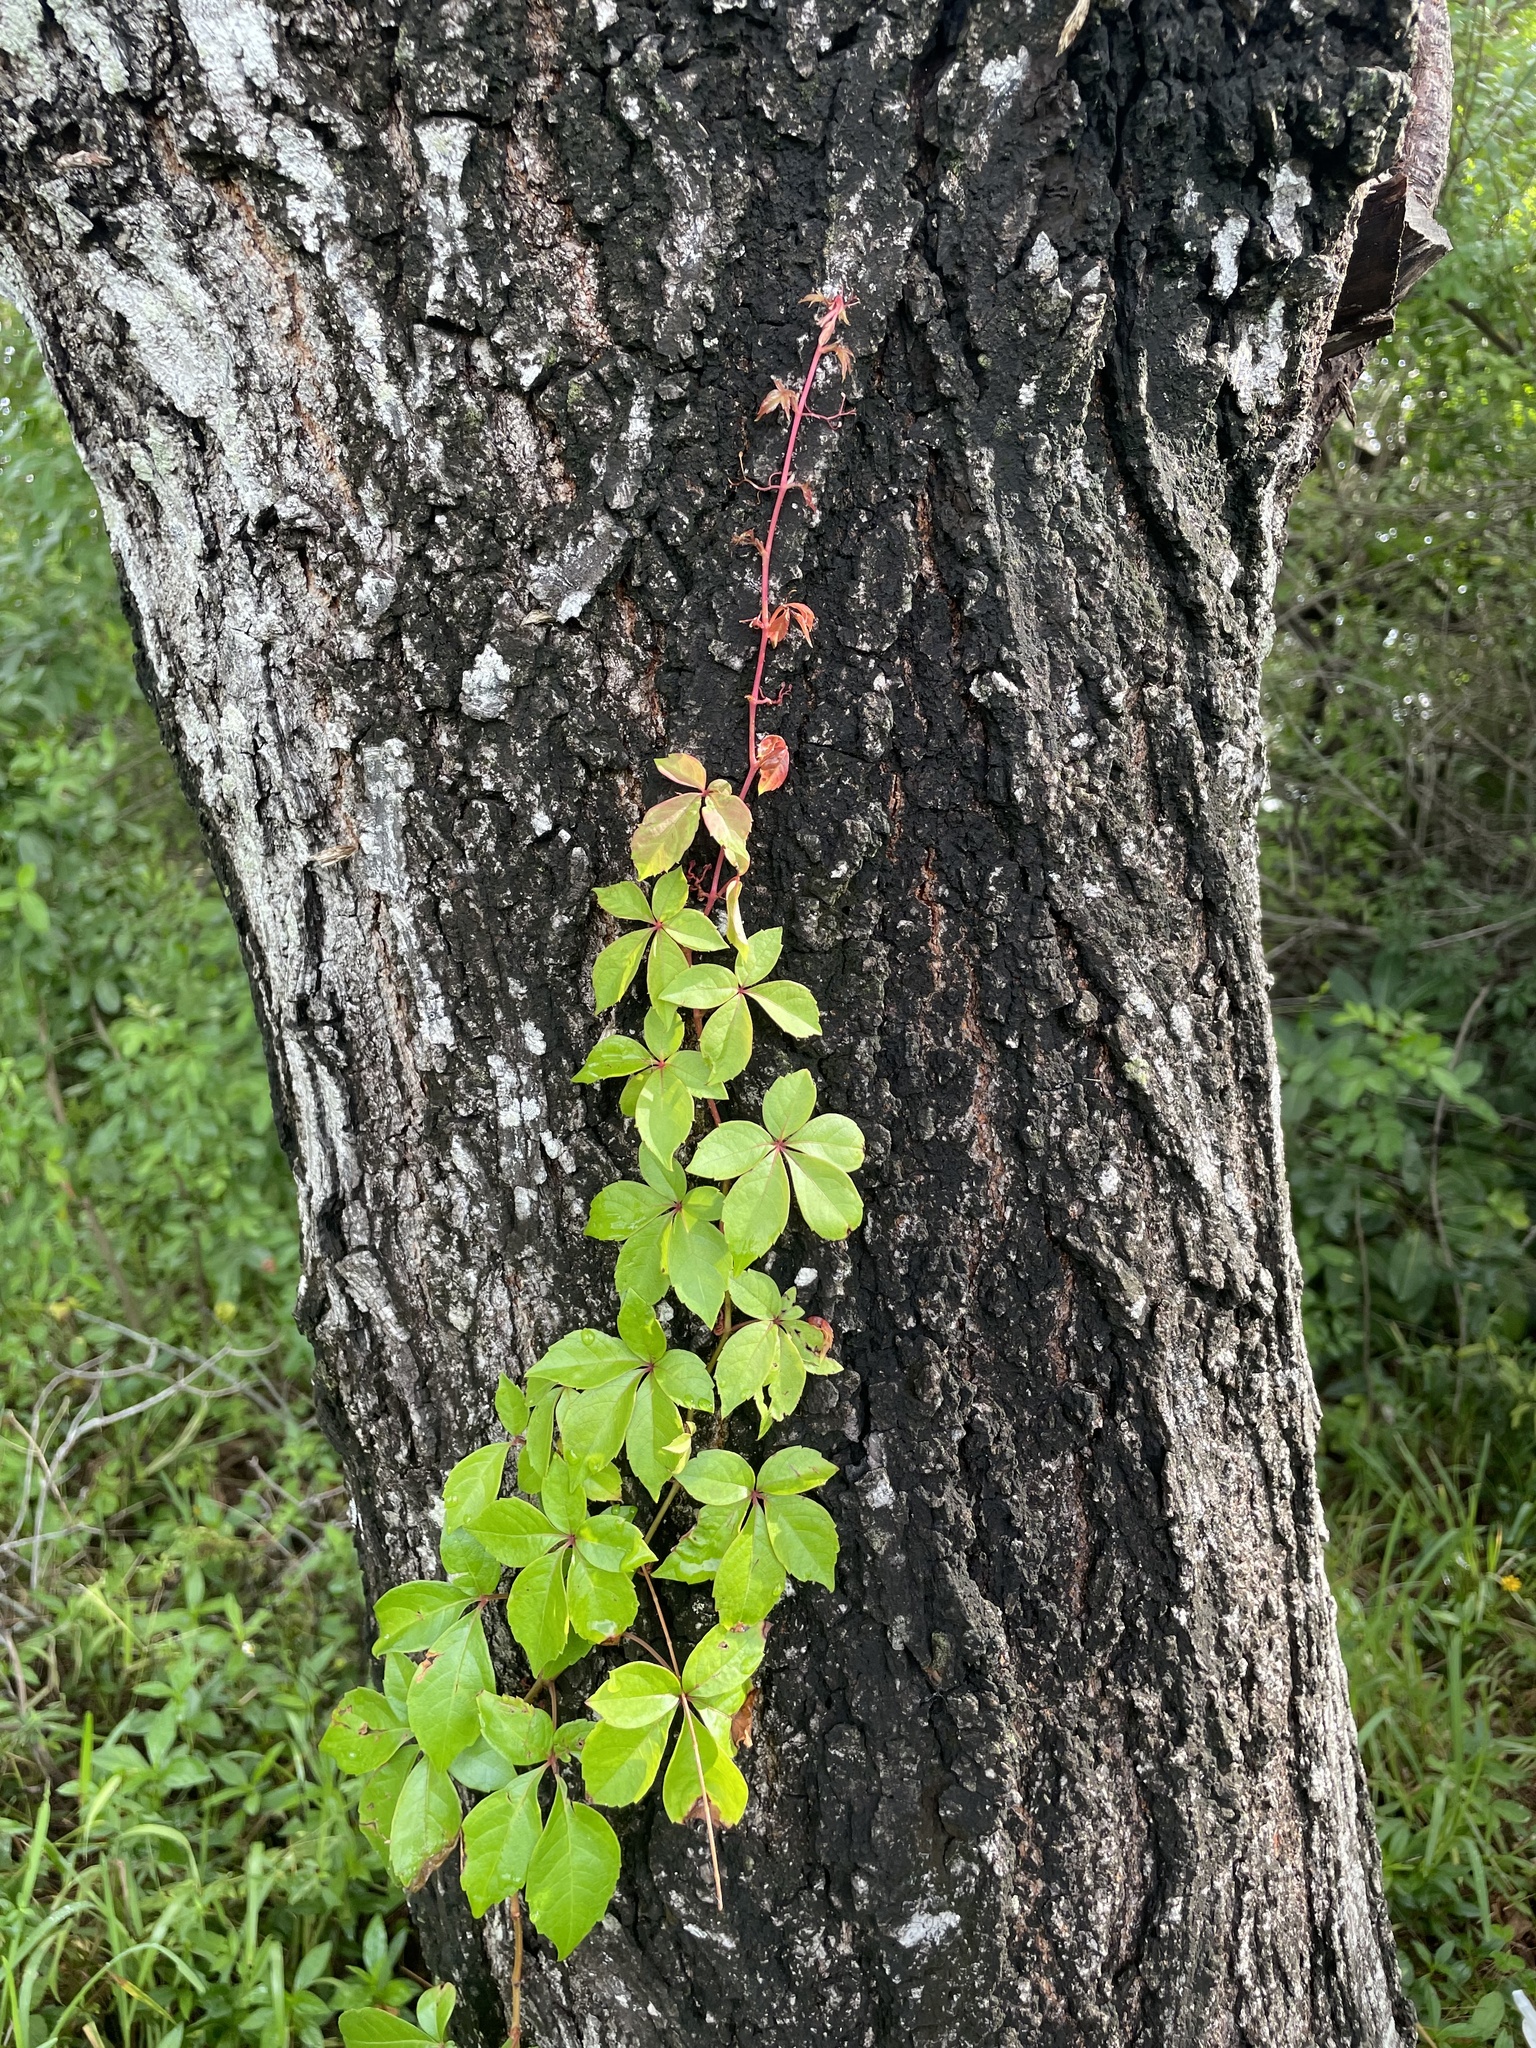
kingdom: Plantae
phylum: Tracheophyta
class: Magnoliopsida
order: Vitales
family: Vitaceae
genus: Parthenocissus
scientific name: Parthenocissus quinquefolia
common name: Virginia-creeper
